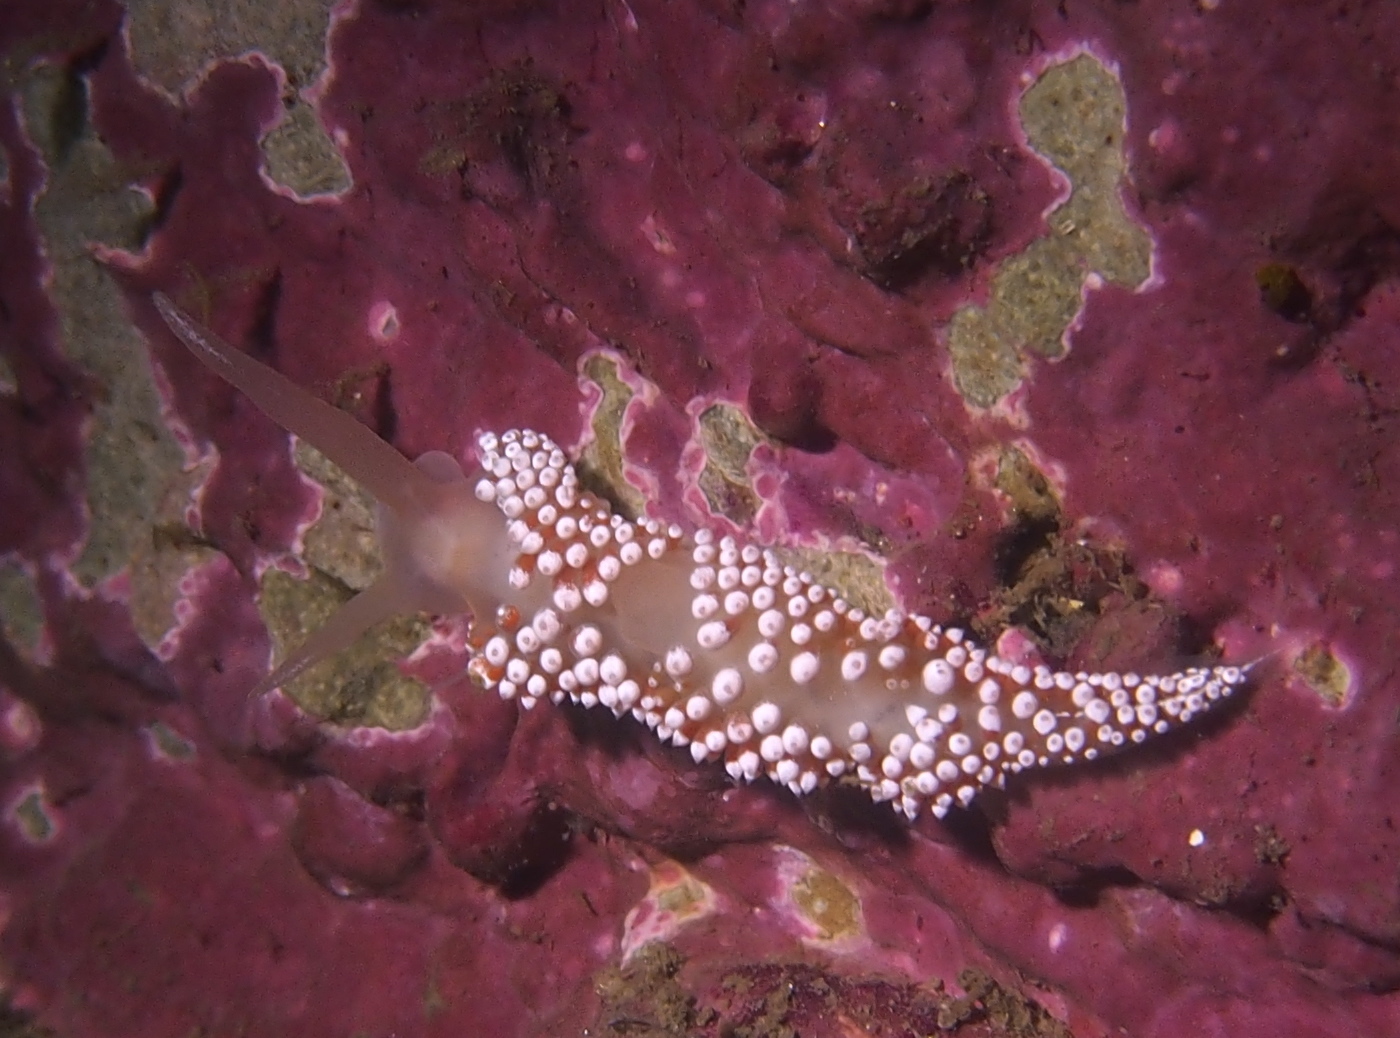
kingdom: Animalia
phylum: Mollusca
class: Gastropoda
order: Nudibranchia
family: Coryphellidae
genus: Coryphella
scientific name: Coryphella verrucosa
